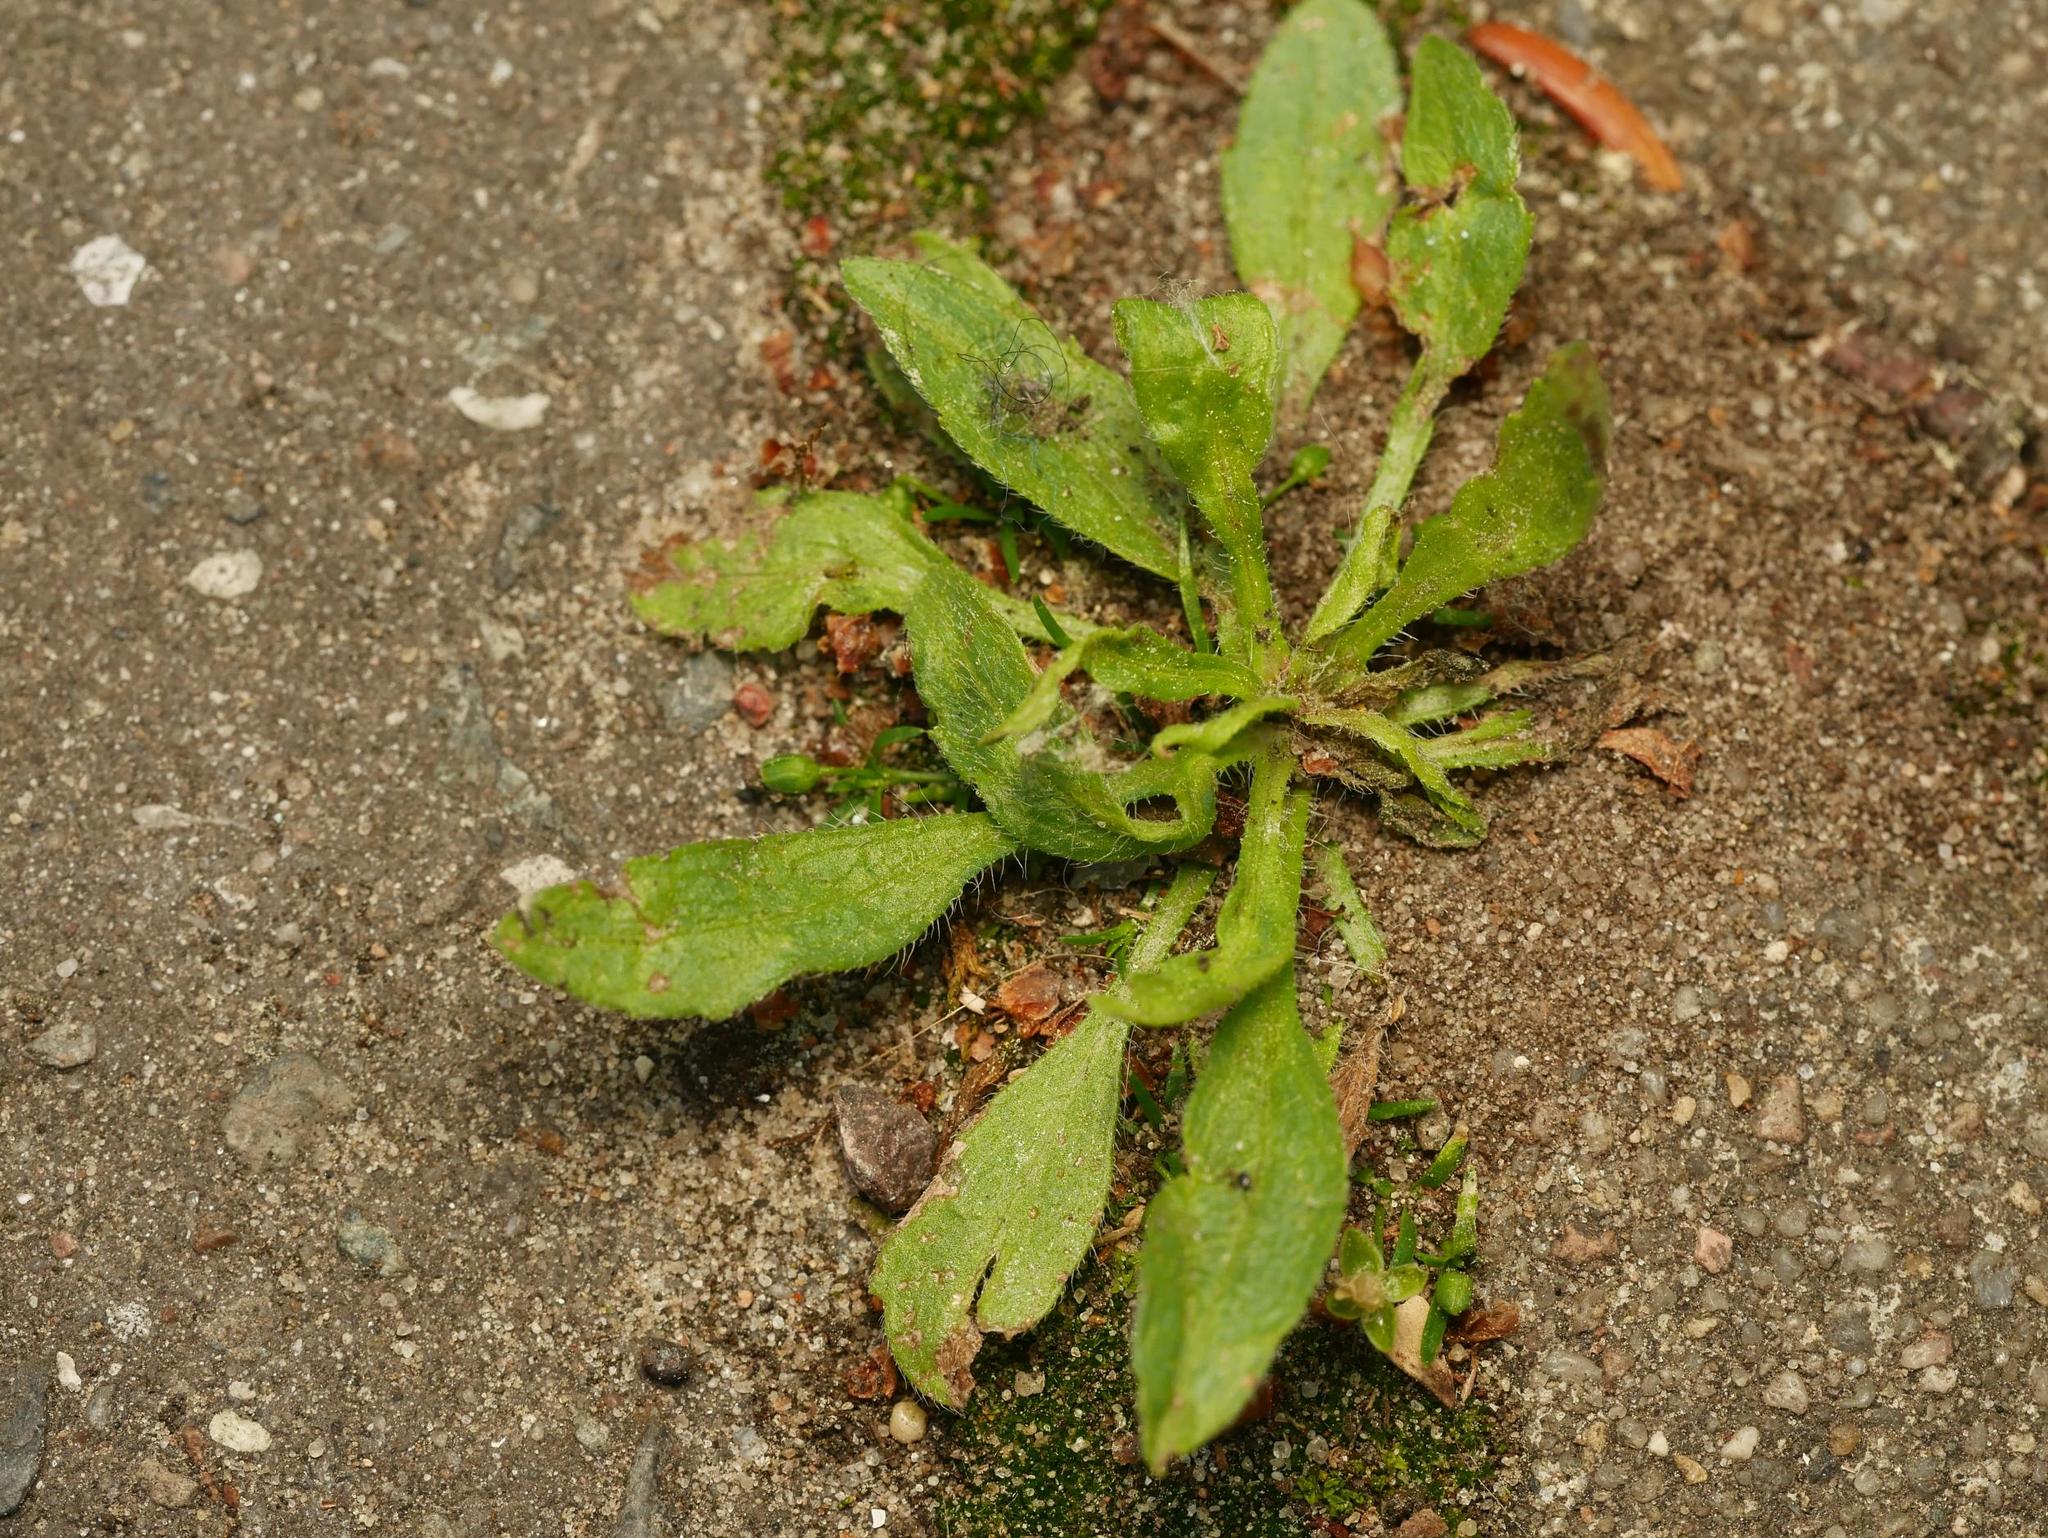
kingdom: Plantae
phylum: Tracheophyta
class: Magnoliopsida
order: Asterales
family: Asteraceae
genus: Erigeron
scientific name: Erigeron canadensis
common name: Canadian fleabane
